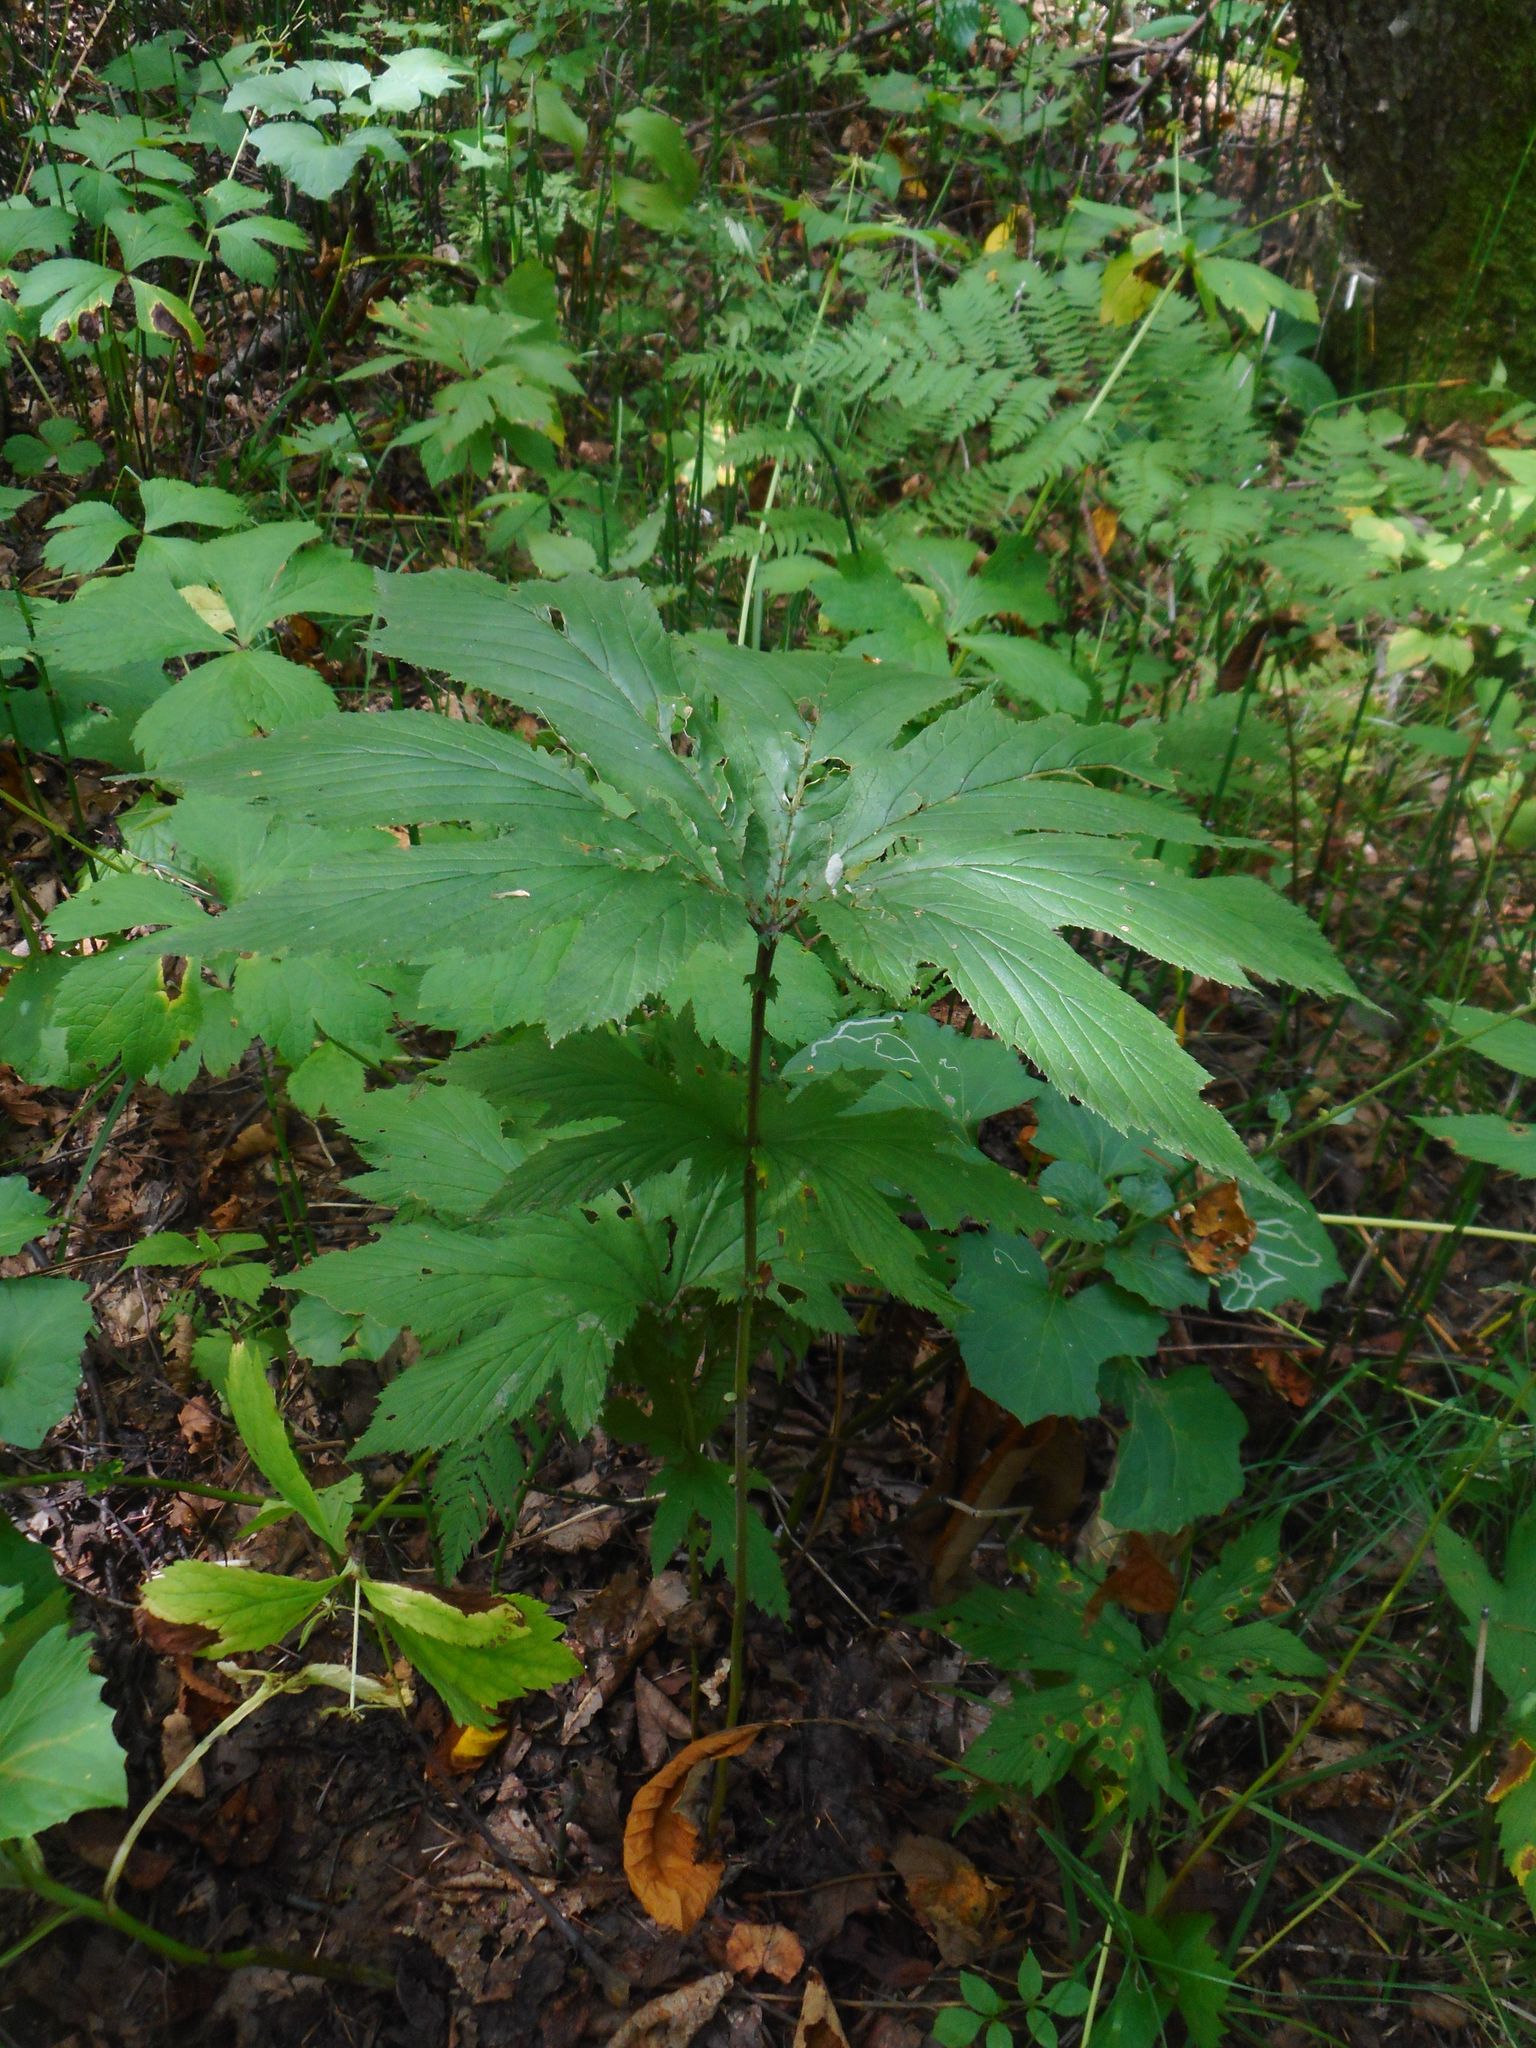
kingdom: Plantae
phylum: Tracheophyta
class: Magnoliopsida
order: Rosales
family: Rosaceae
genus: Filipendula
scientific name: Filipendula digitata
